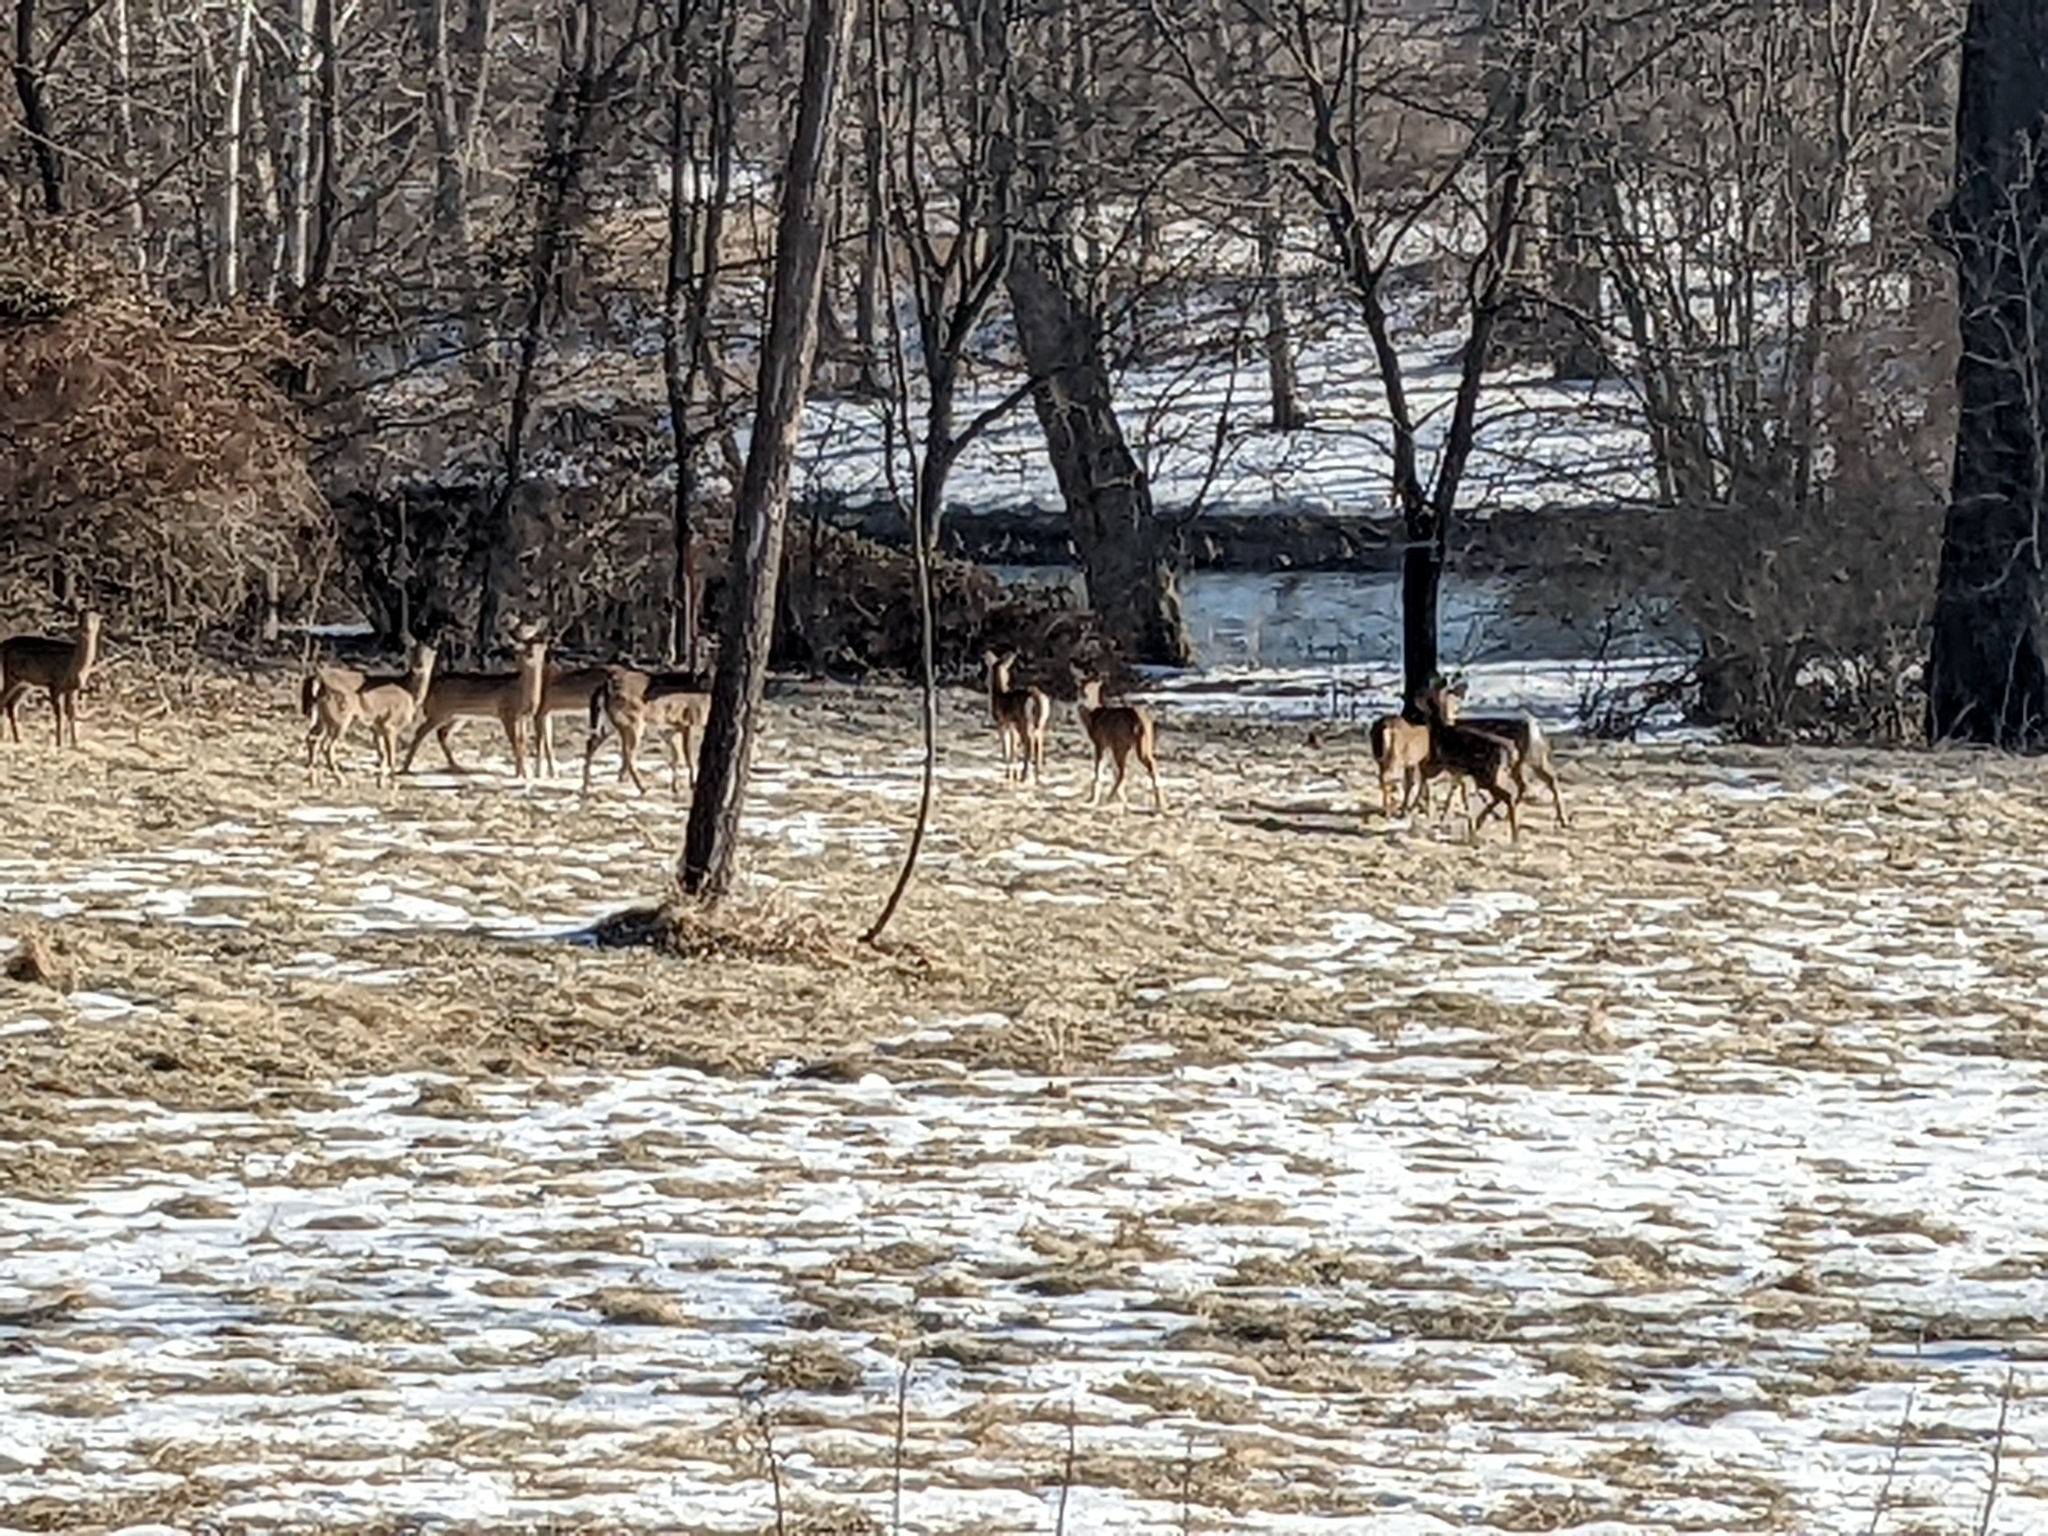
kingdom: Animalia
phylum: Chordata
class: Mammalia
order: Artiodactyla
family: Cervidae
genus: Odocoileus
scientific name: Odocoileus virginianus
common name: White-tailed deer
